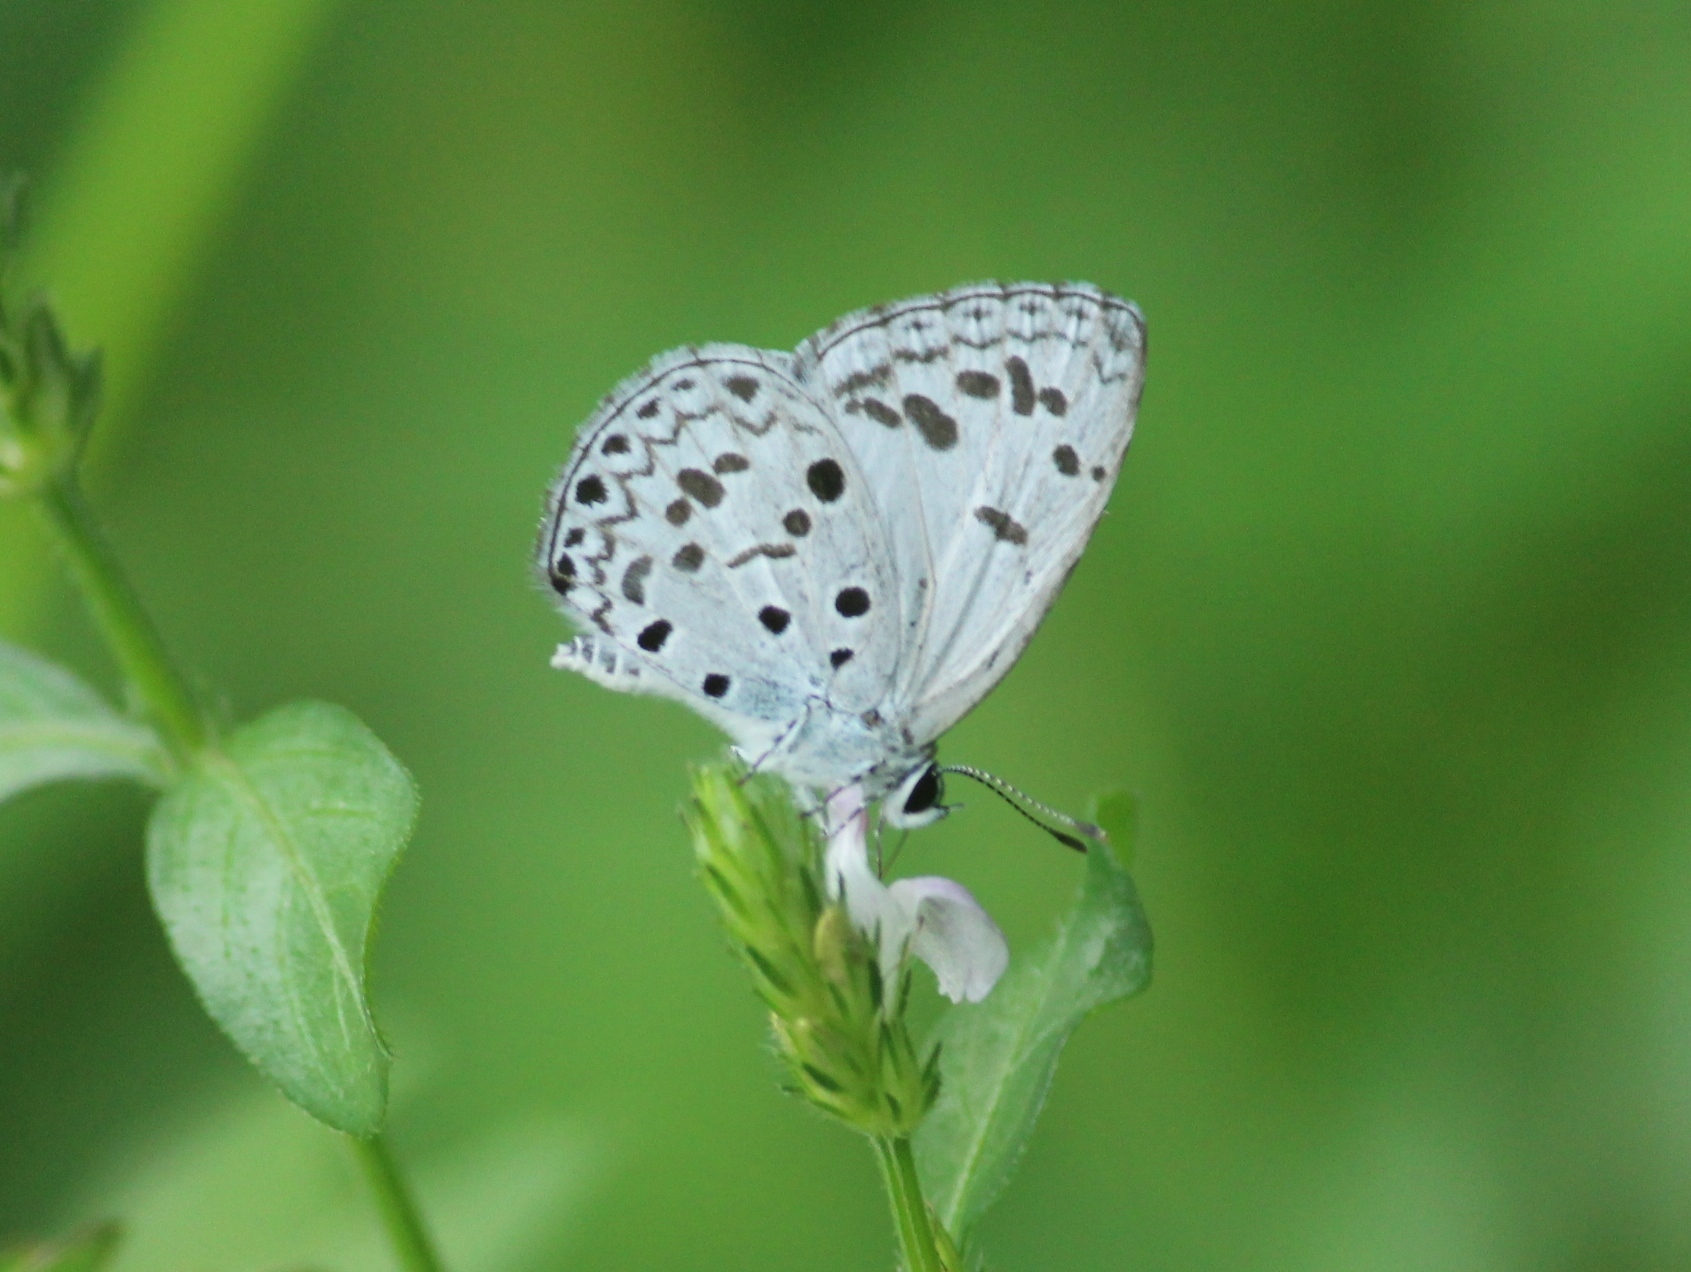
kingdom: Animalia
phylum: Arthropoda
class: Insecta
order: Lepidoptera
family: Lycaenidae
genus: Acytolepis
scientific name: Acytolepis puspa
